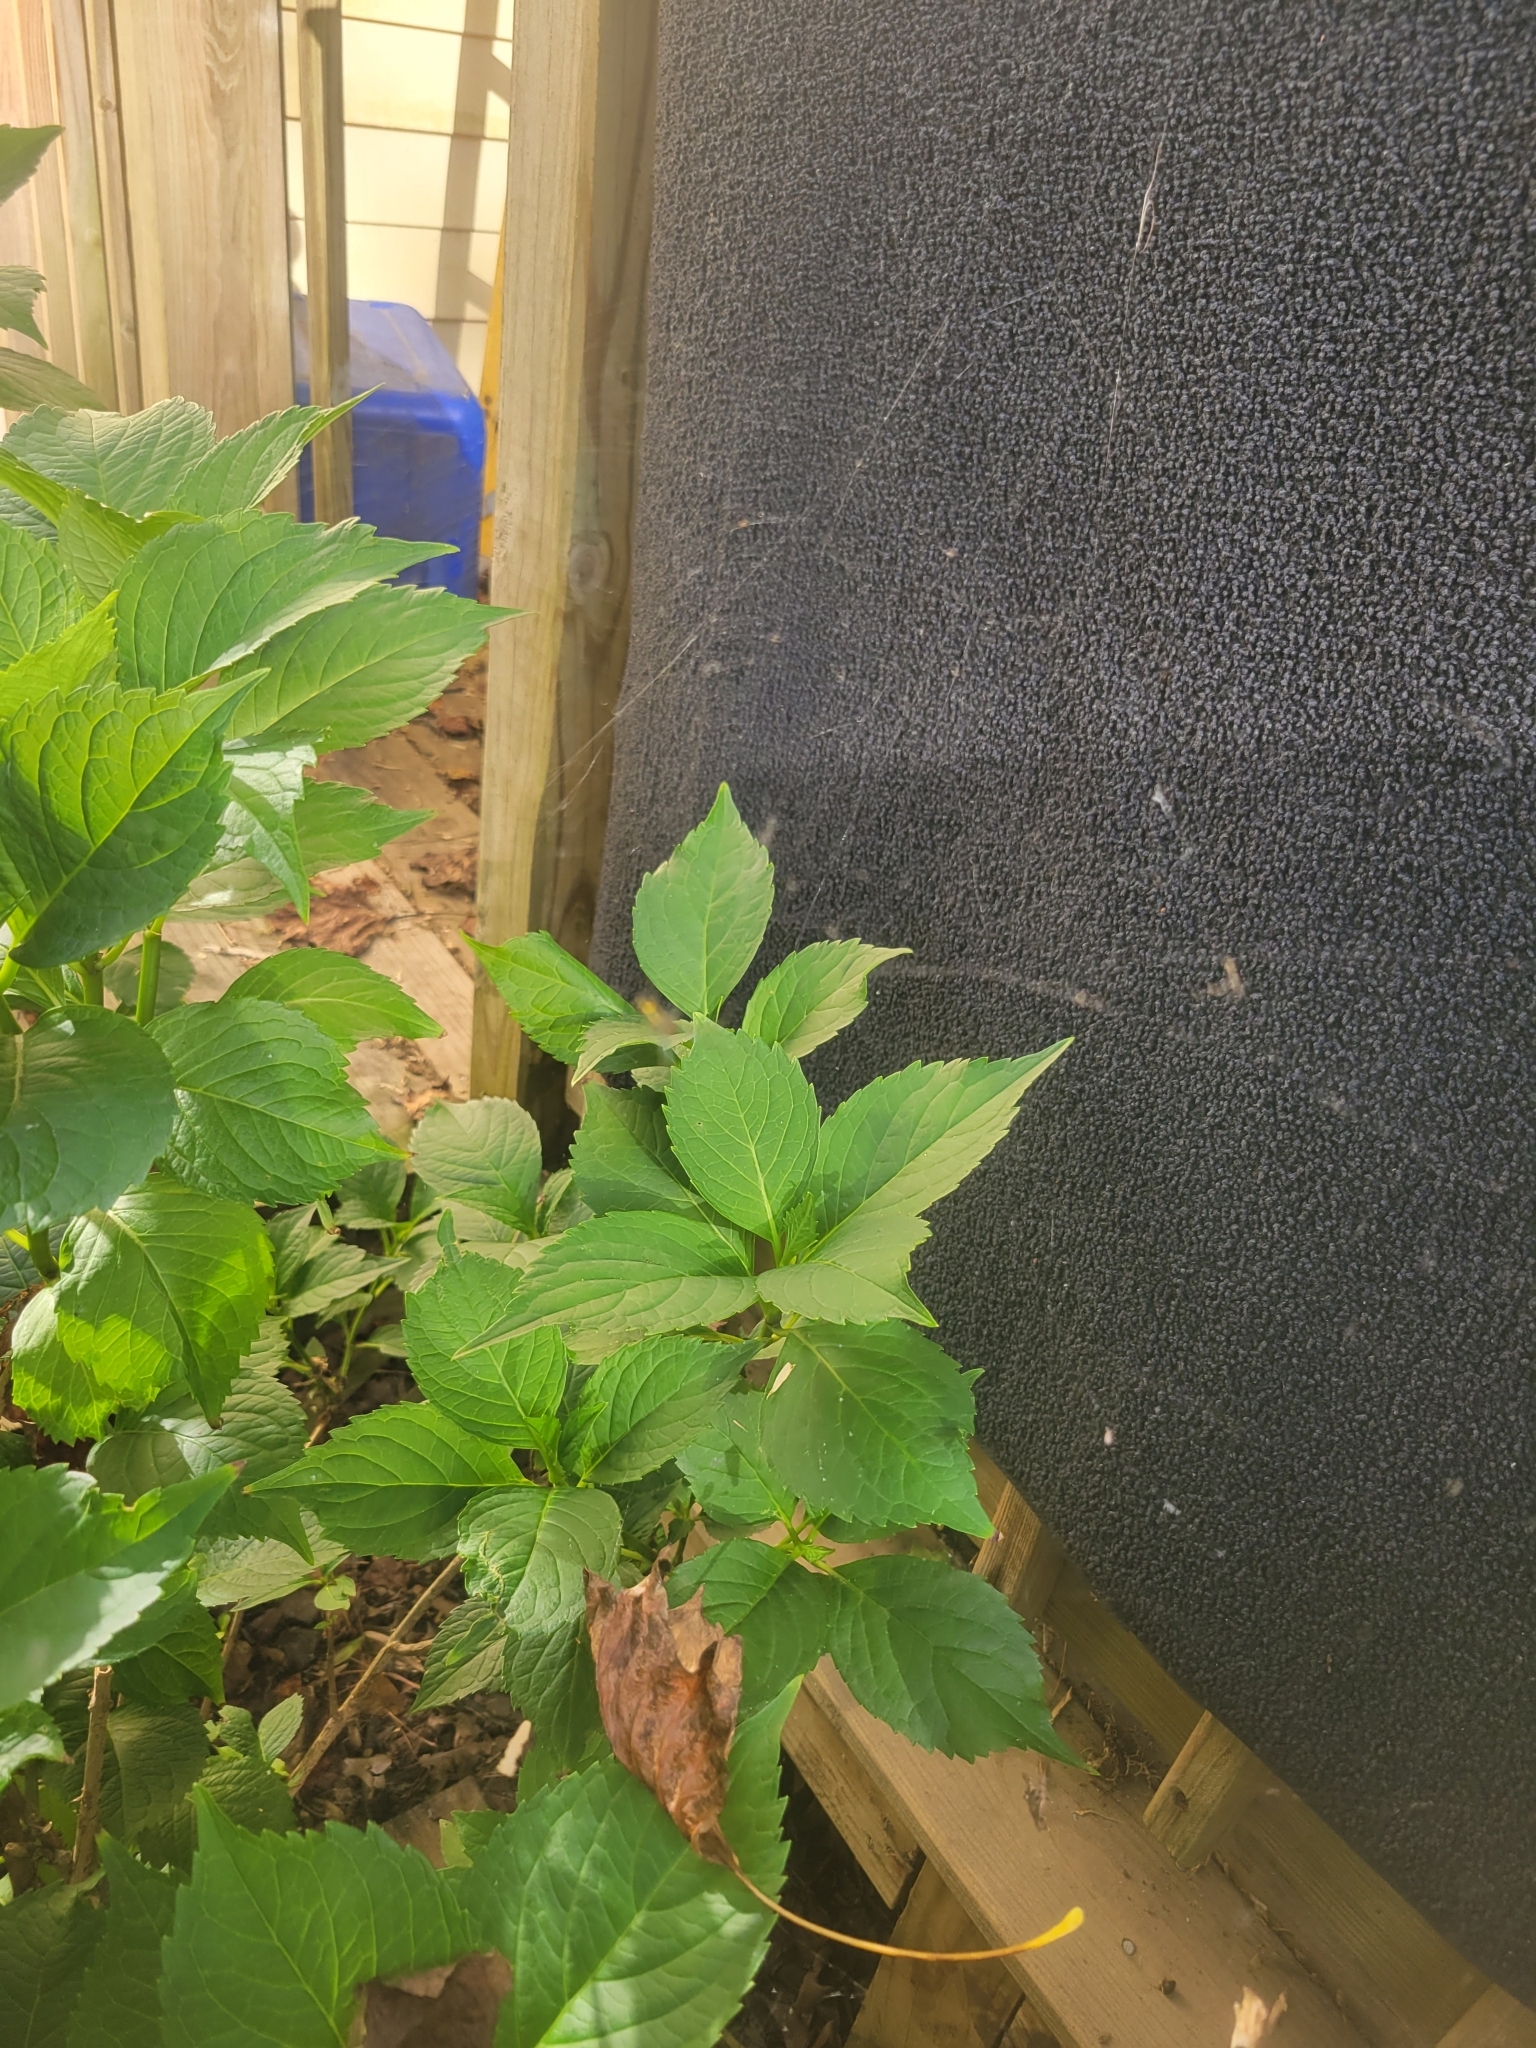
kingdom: Animalia
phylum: Arthropoda
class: Arachnida
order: Araneae
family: Tetragnathidae
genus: Leucauge
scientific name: Leucauge venusta
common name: Longjawed orb weavers
